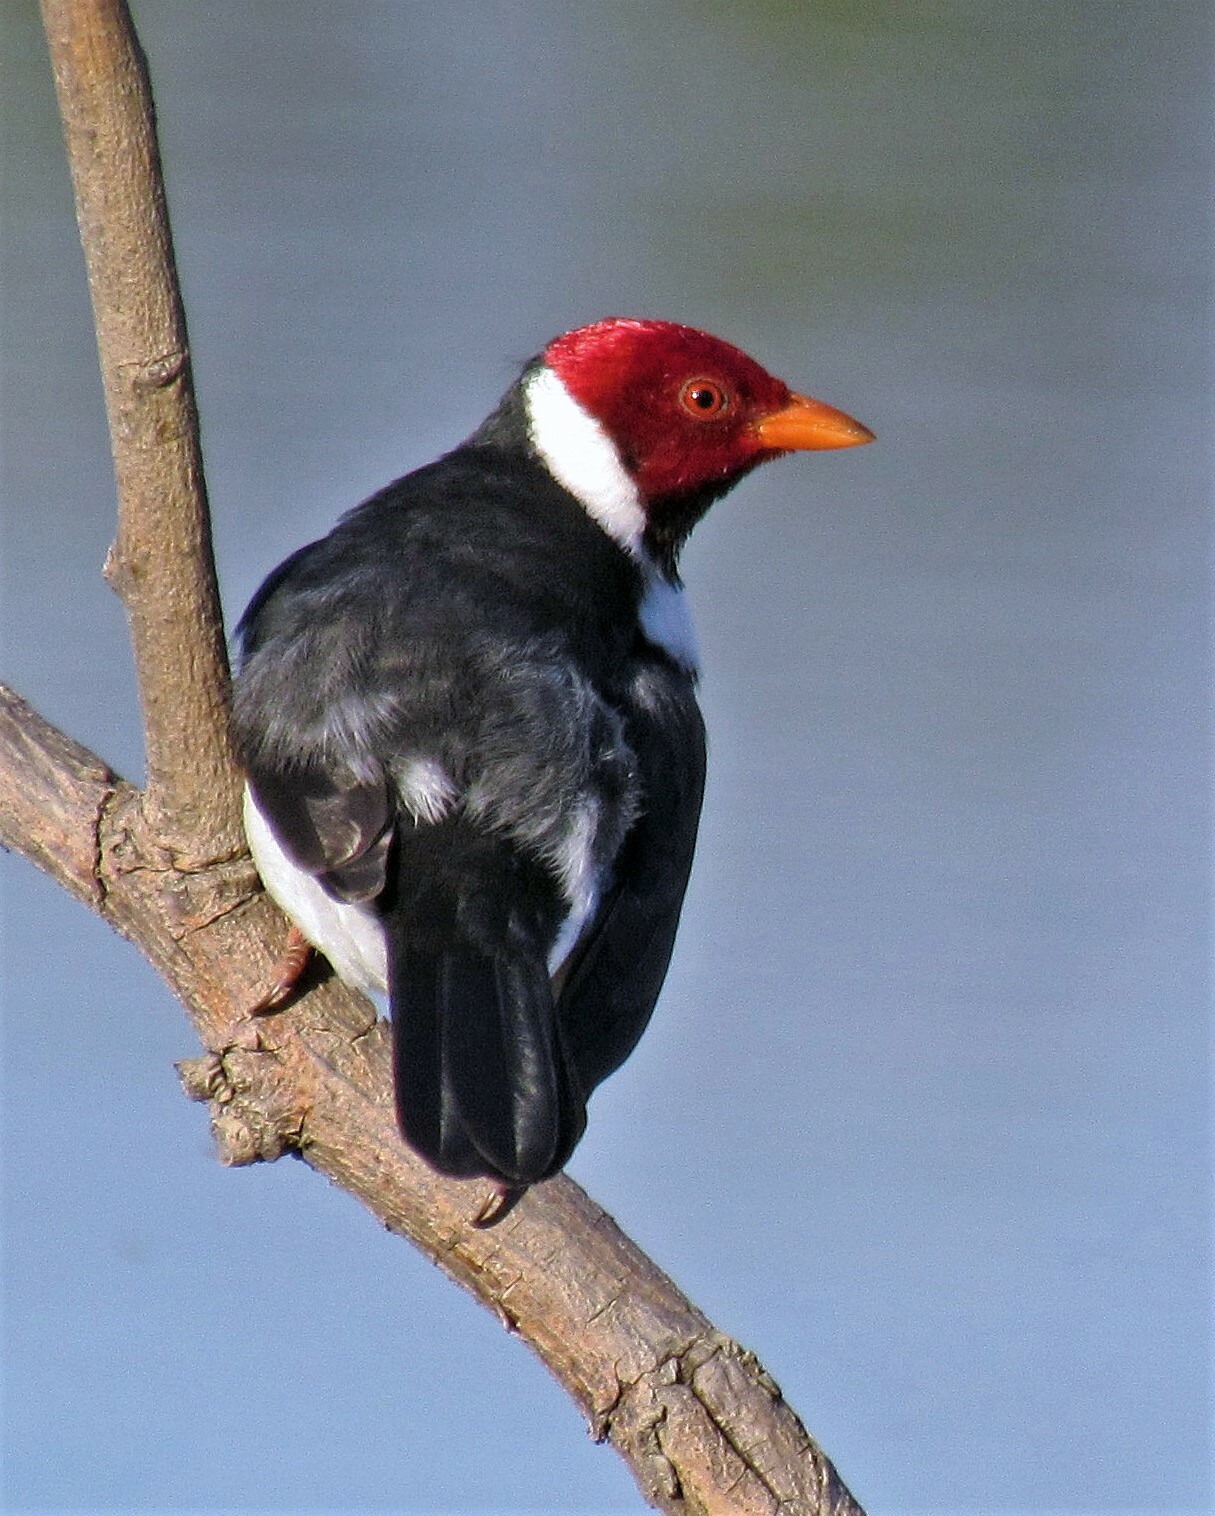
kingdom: Animalia
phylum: Chordata
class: Aves
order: Passeriformes
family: Thraupidae
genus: Paroaria
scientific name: Paroaria capitata
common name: Yellow-billed cardinal
